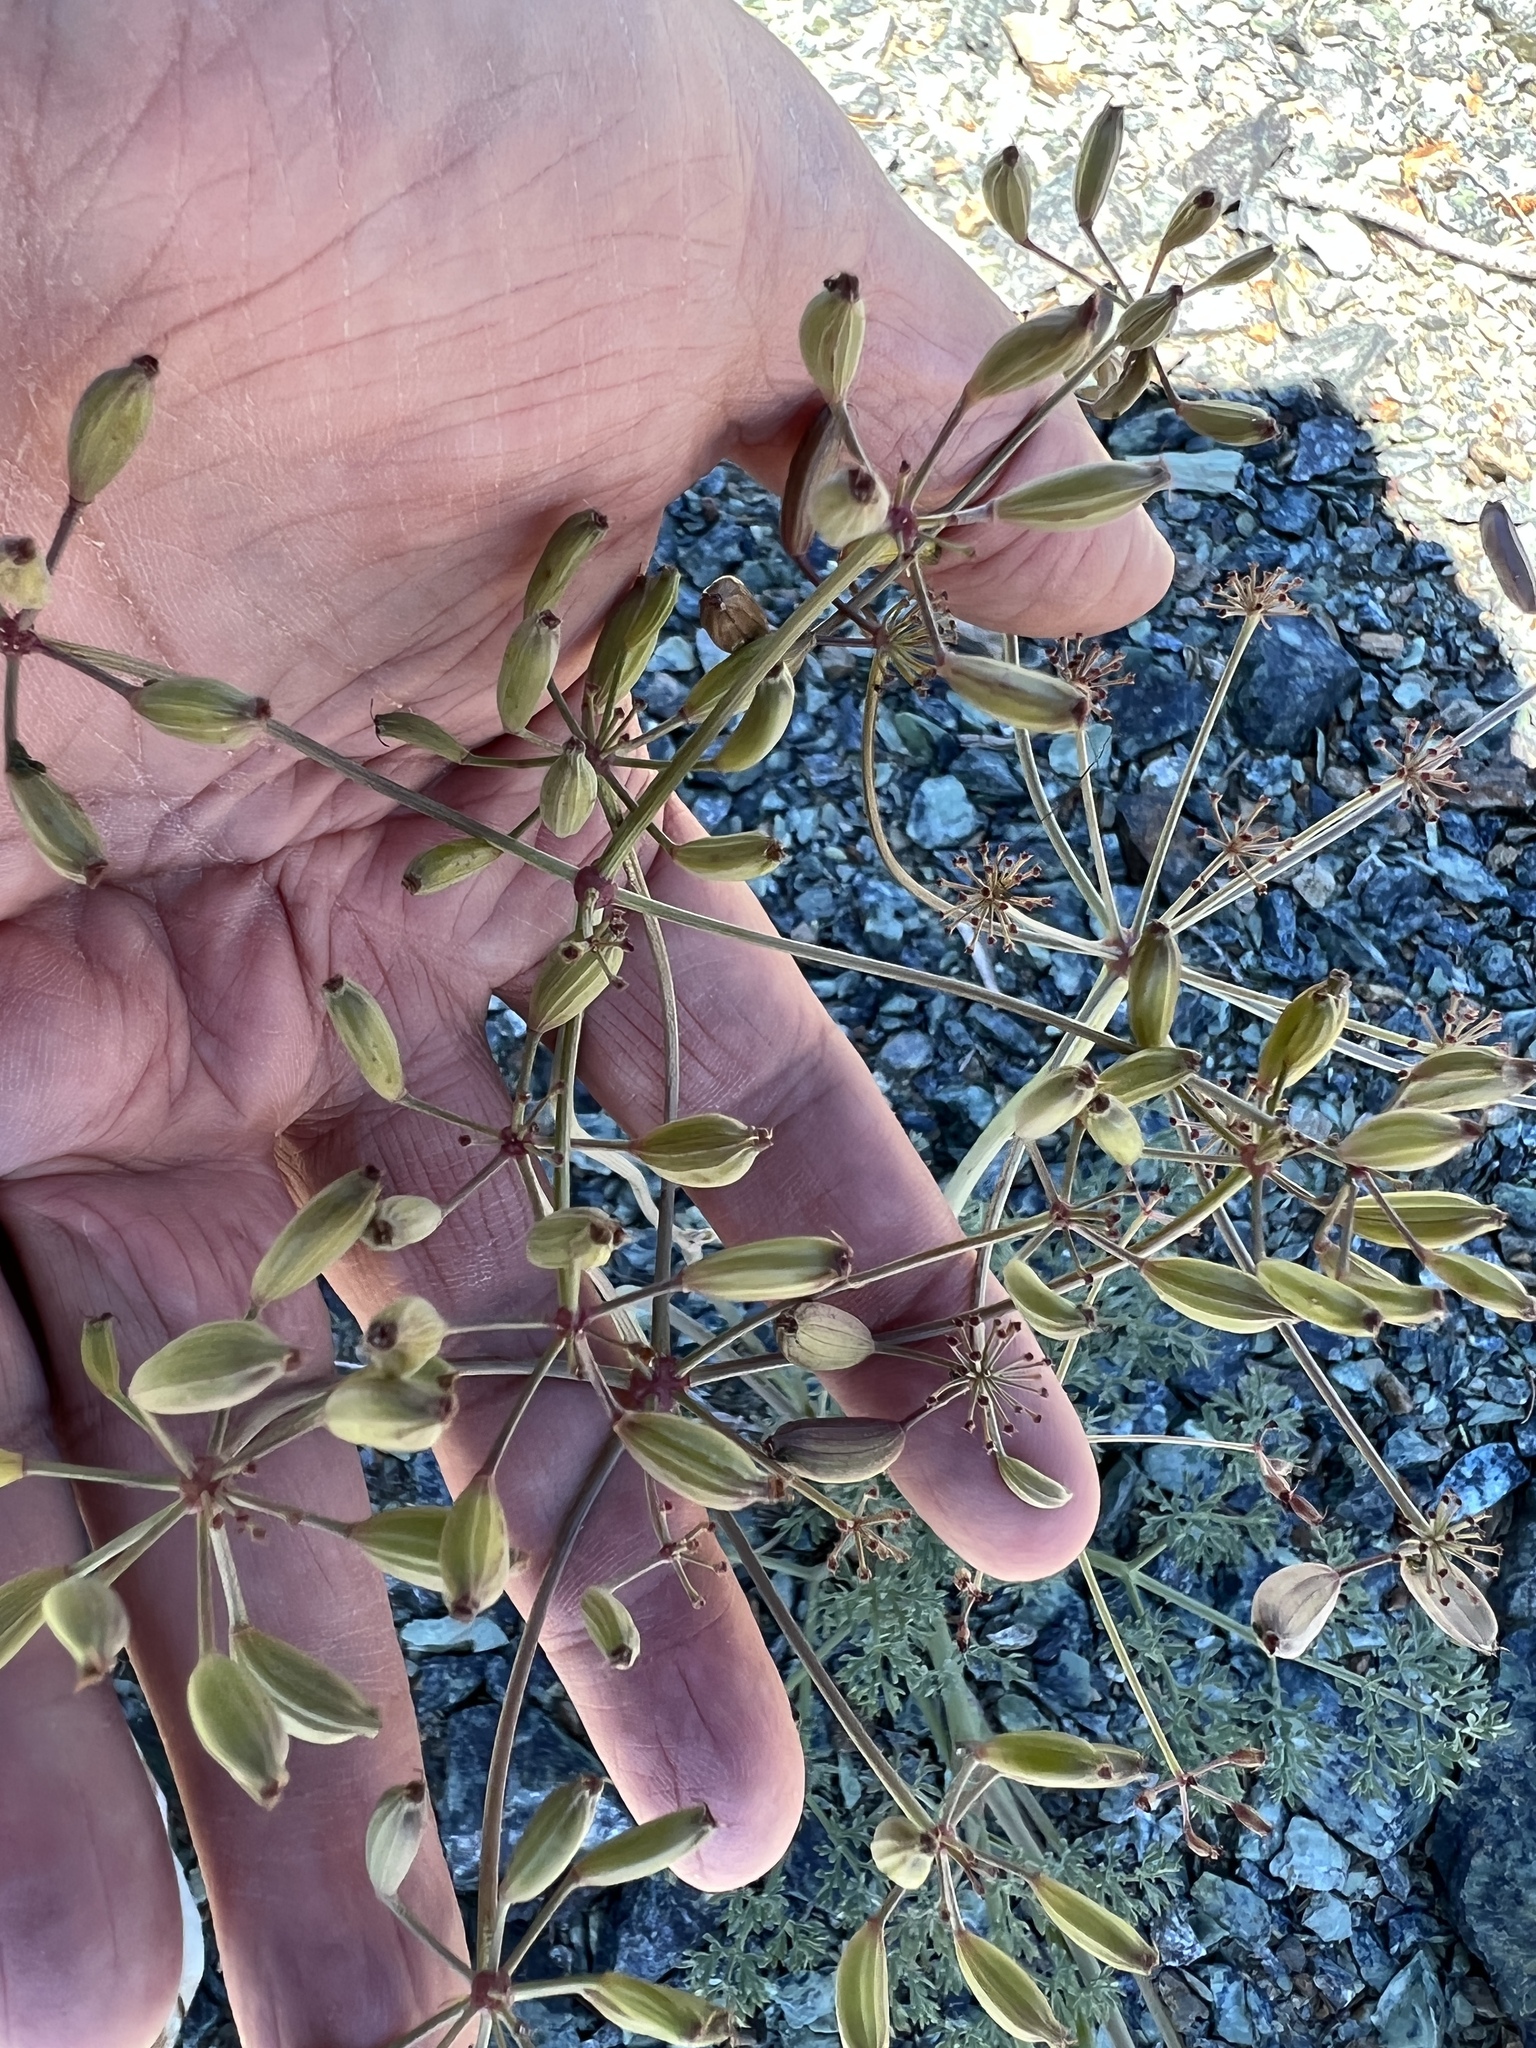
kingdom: Plantae
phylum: Tracheophyta
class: Magnoliopsida
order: Apiales
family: Apiaceae
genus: Lomatium
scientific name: Lomatium cuspidatum
